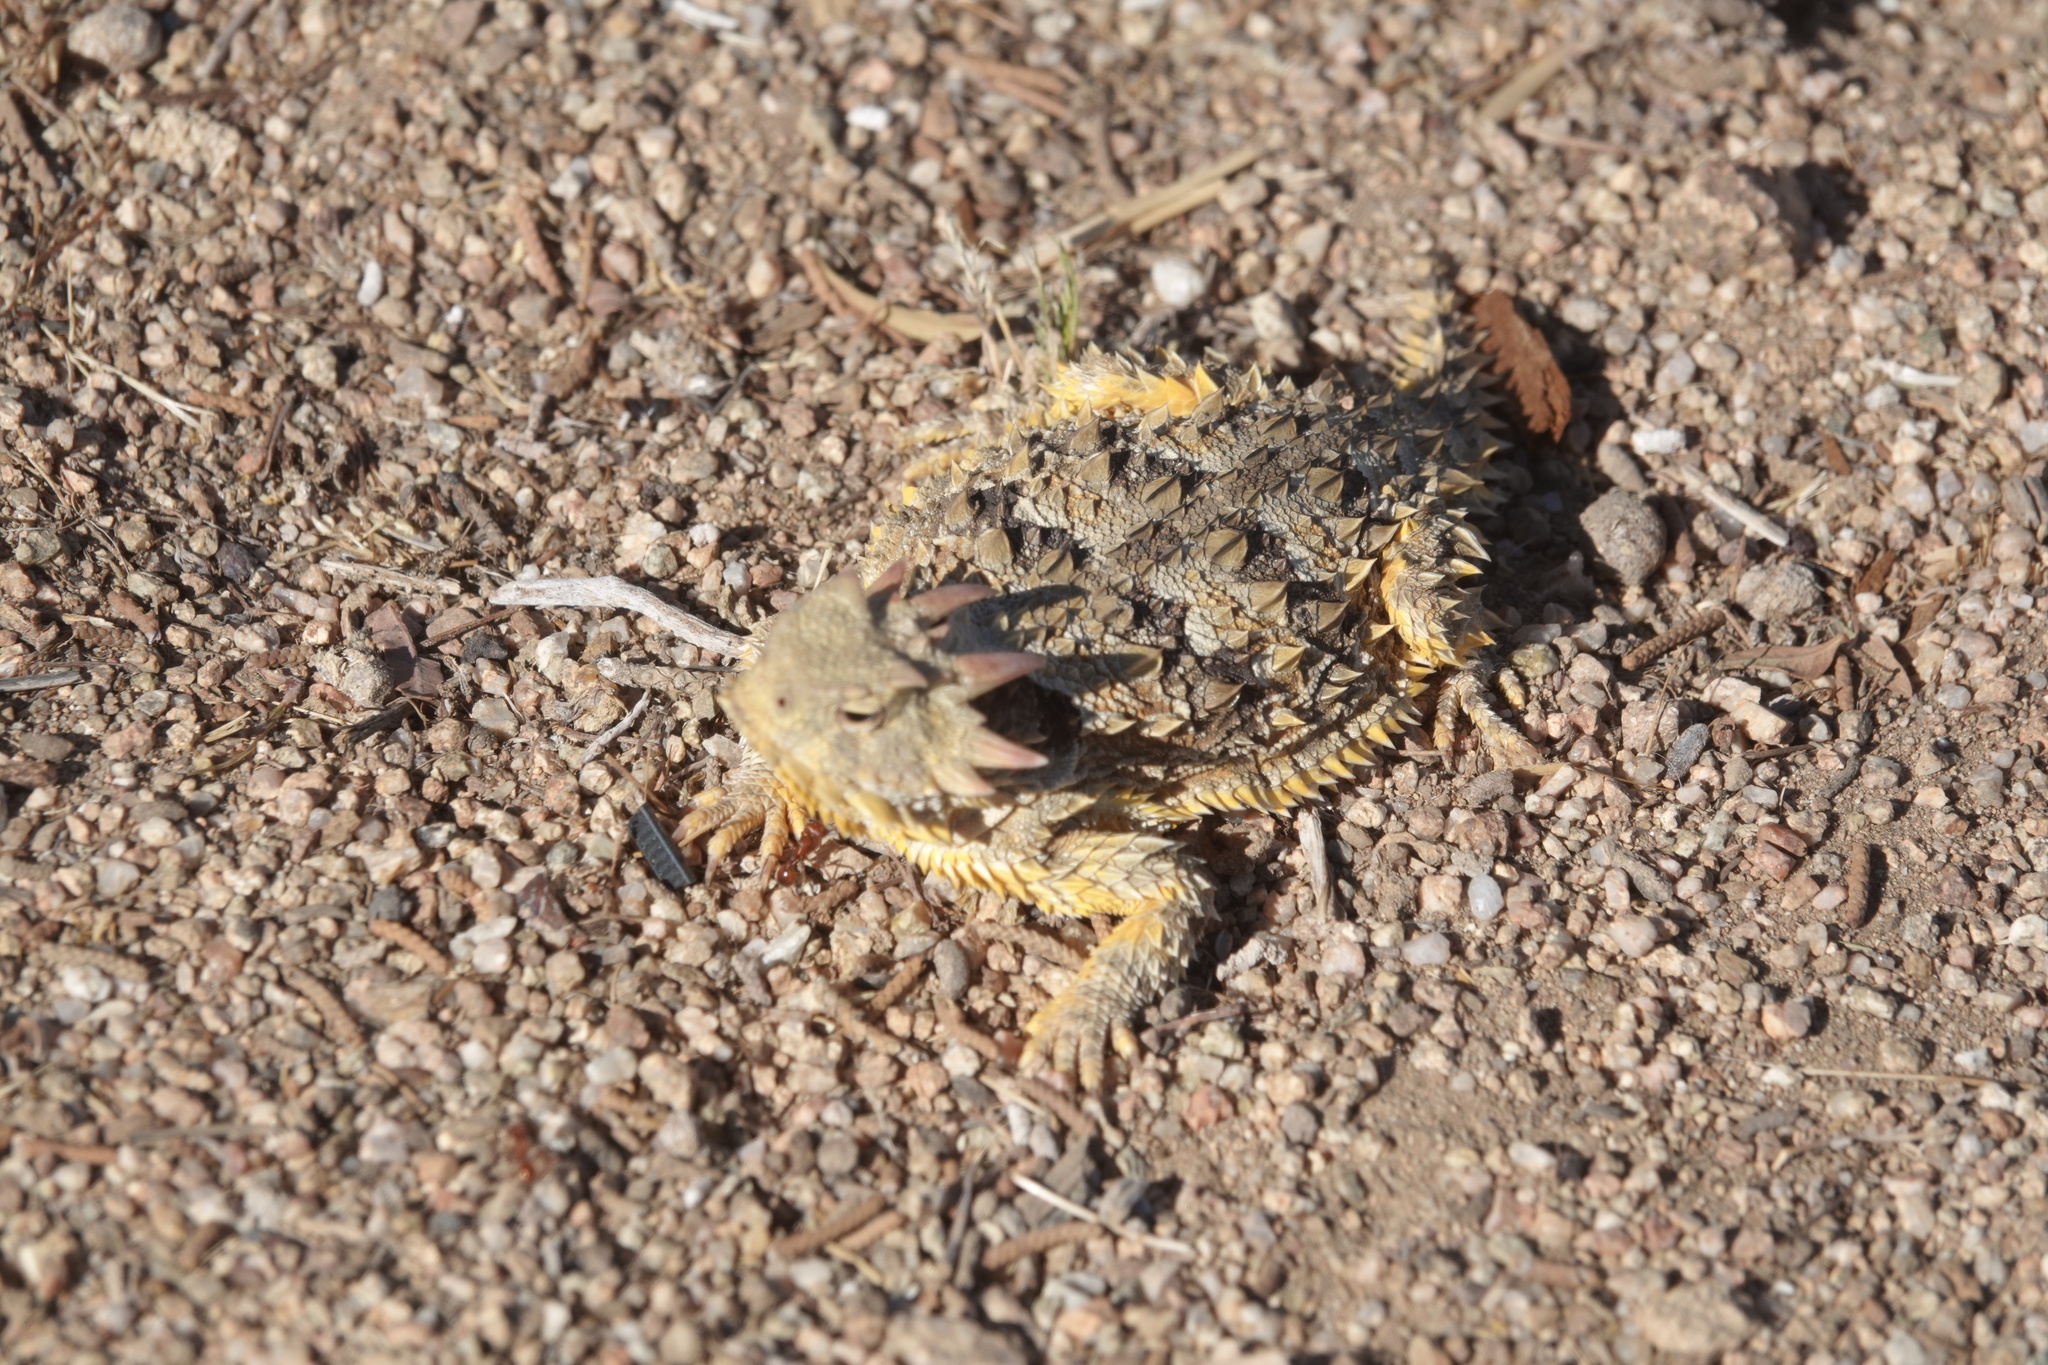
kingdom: Animalia
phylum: Chordata
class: Squamata
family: Phrynosomatidae
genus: Phrynosoma
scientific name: Phrynosoma blainvillii
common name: San diego horned lizard
